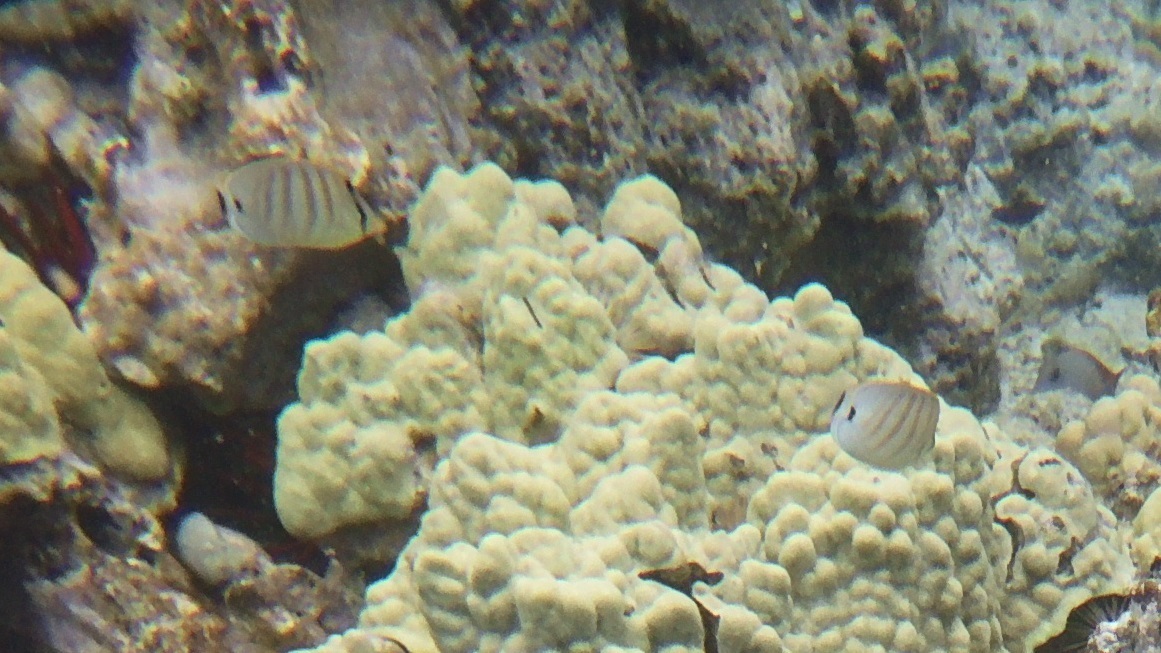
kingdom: Animalia
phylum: Chordata
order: Perciformes
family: Chaetodontidae
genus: Chaetodon
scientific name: Chaetodon multicinctus
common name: Multiband butterflyfish
